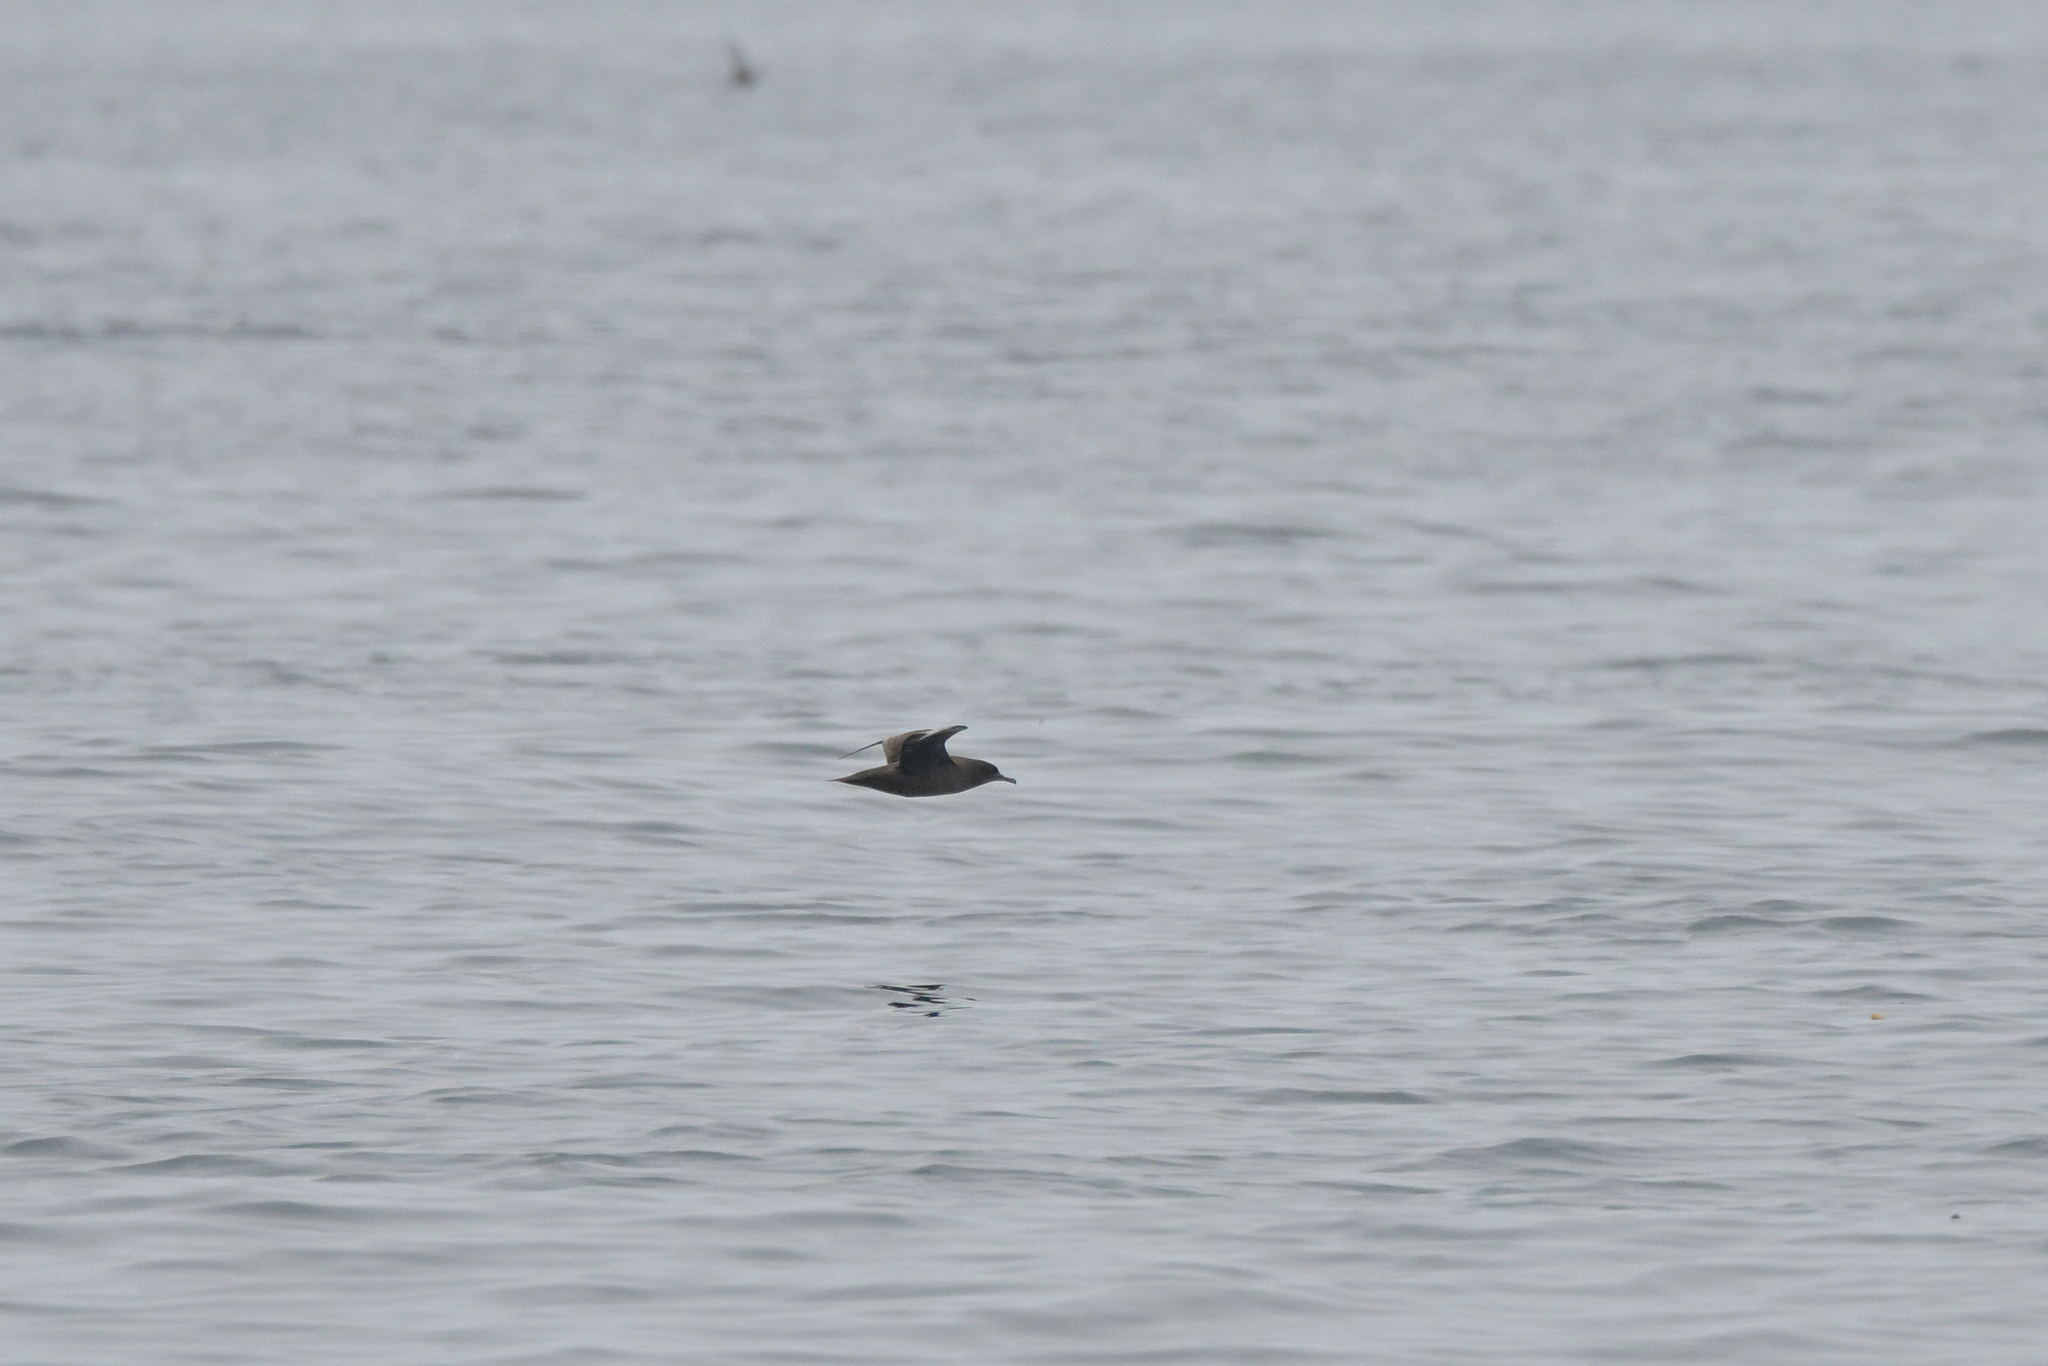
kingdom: Animalia
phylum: Chordata
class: Aves
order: Procellariiformes
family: Procellariidae
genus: Puffinus
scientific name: Puffinus griseus
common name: Sooty shearwater
